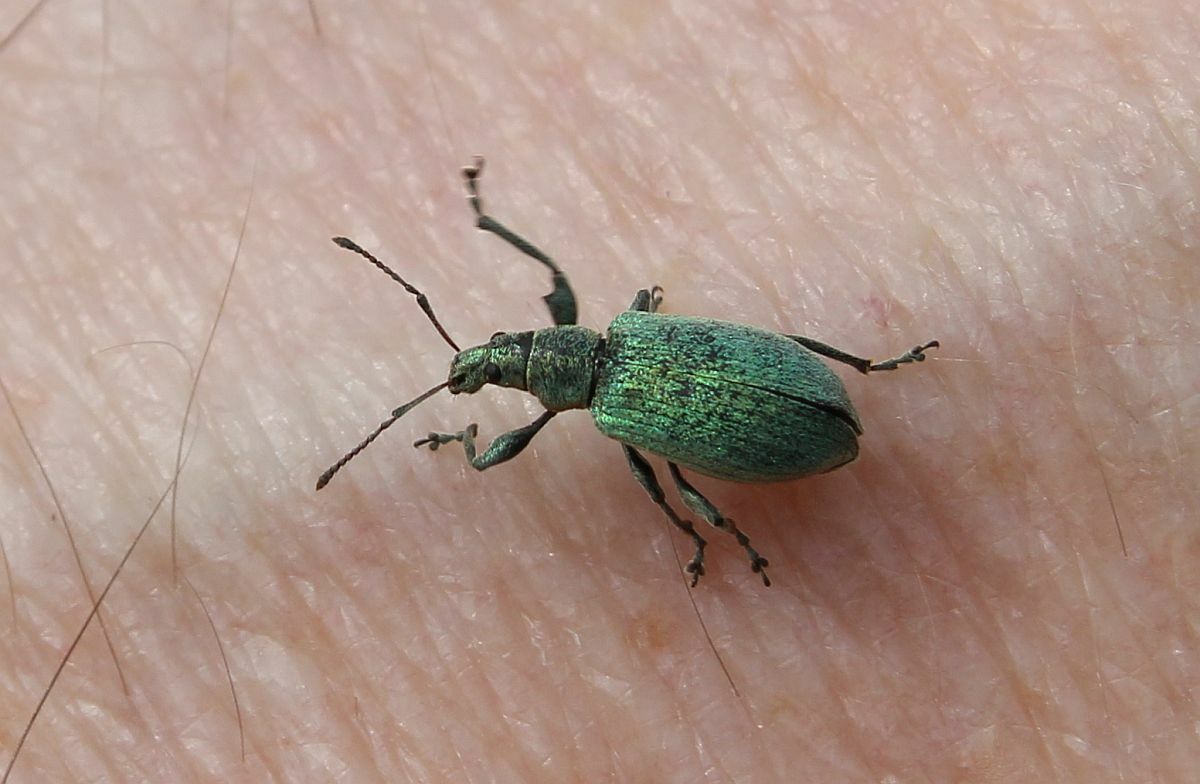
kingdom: Animalia
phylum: Arthropoda
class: Insecta
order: Coleoptera
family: Curculionidae
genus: Phyllobius
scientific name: Phyllobius pomaceus
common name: Green nettle weevil
